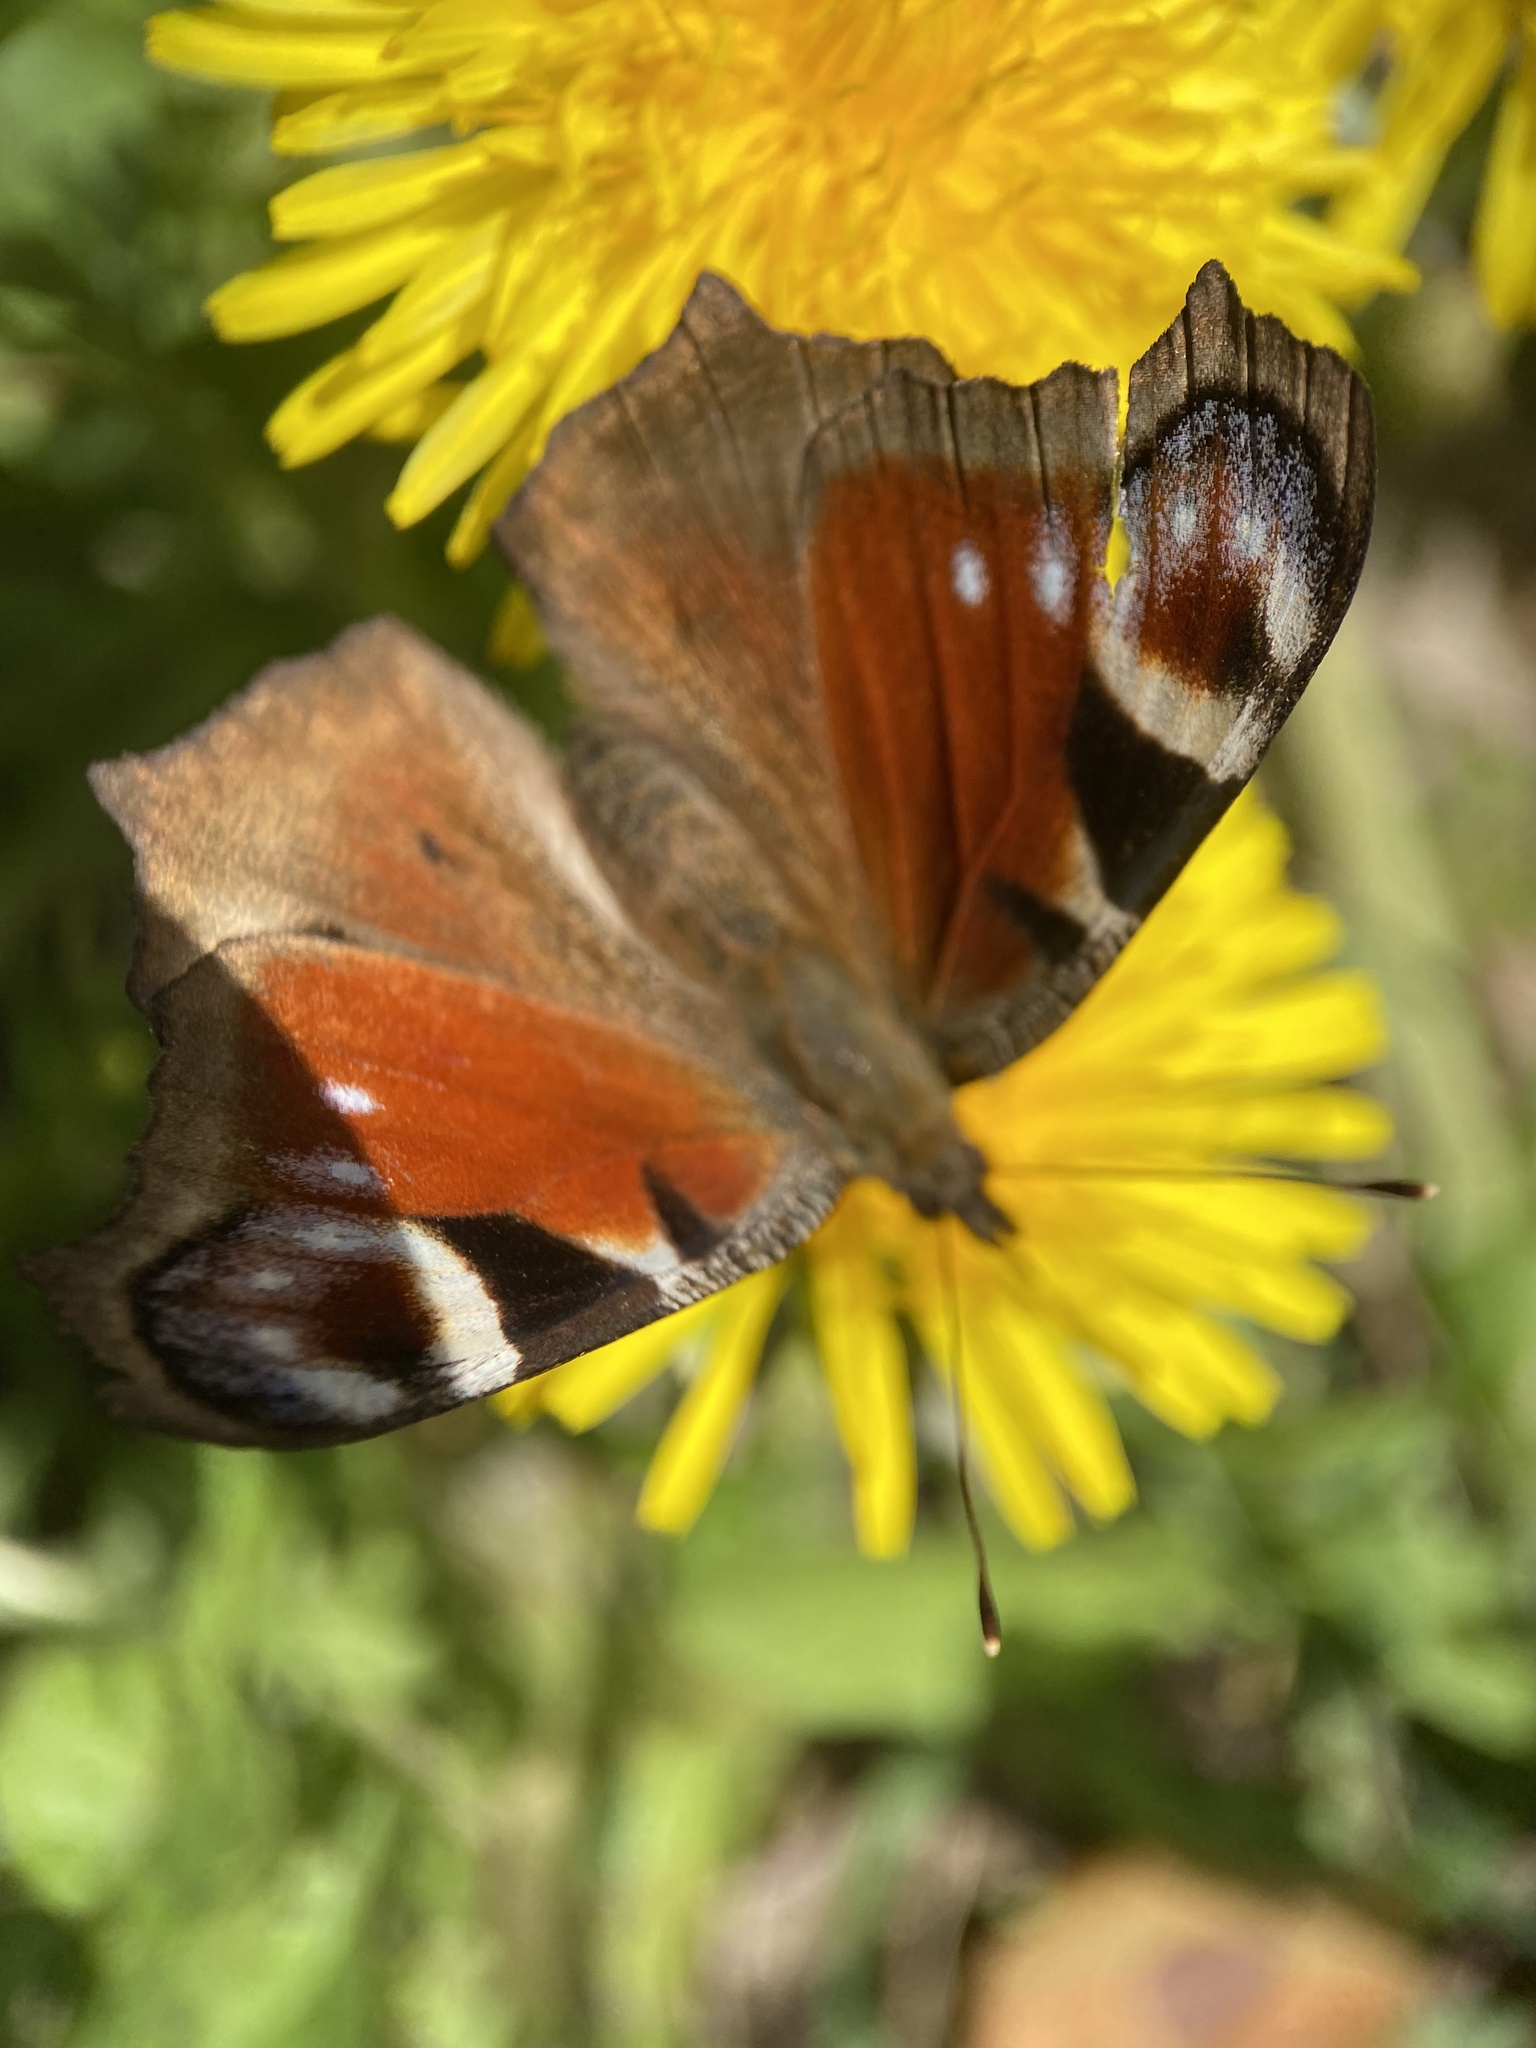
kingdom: Animalia
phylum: Arthropoda
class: Insecta
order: Lepidoptera
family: Nymphalidae
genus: Aglais
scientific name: Aglais io
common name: Peacock
